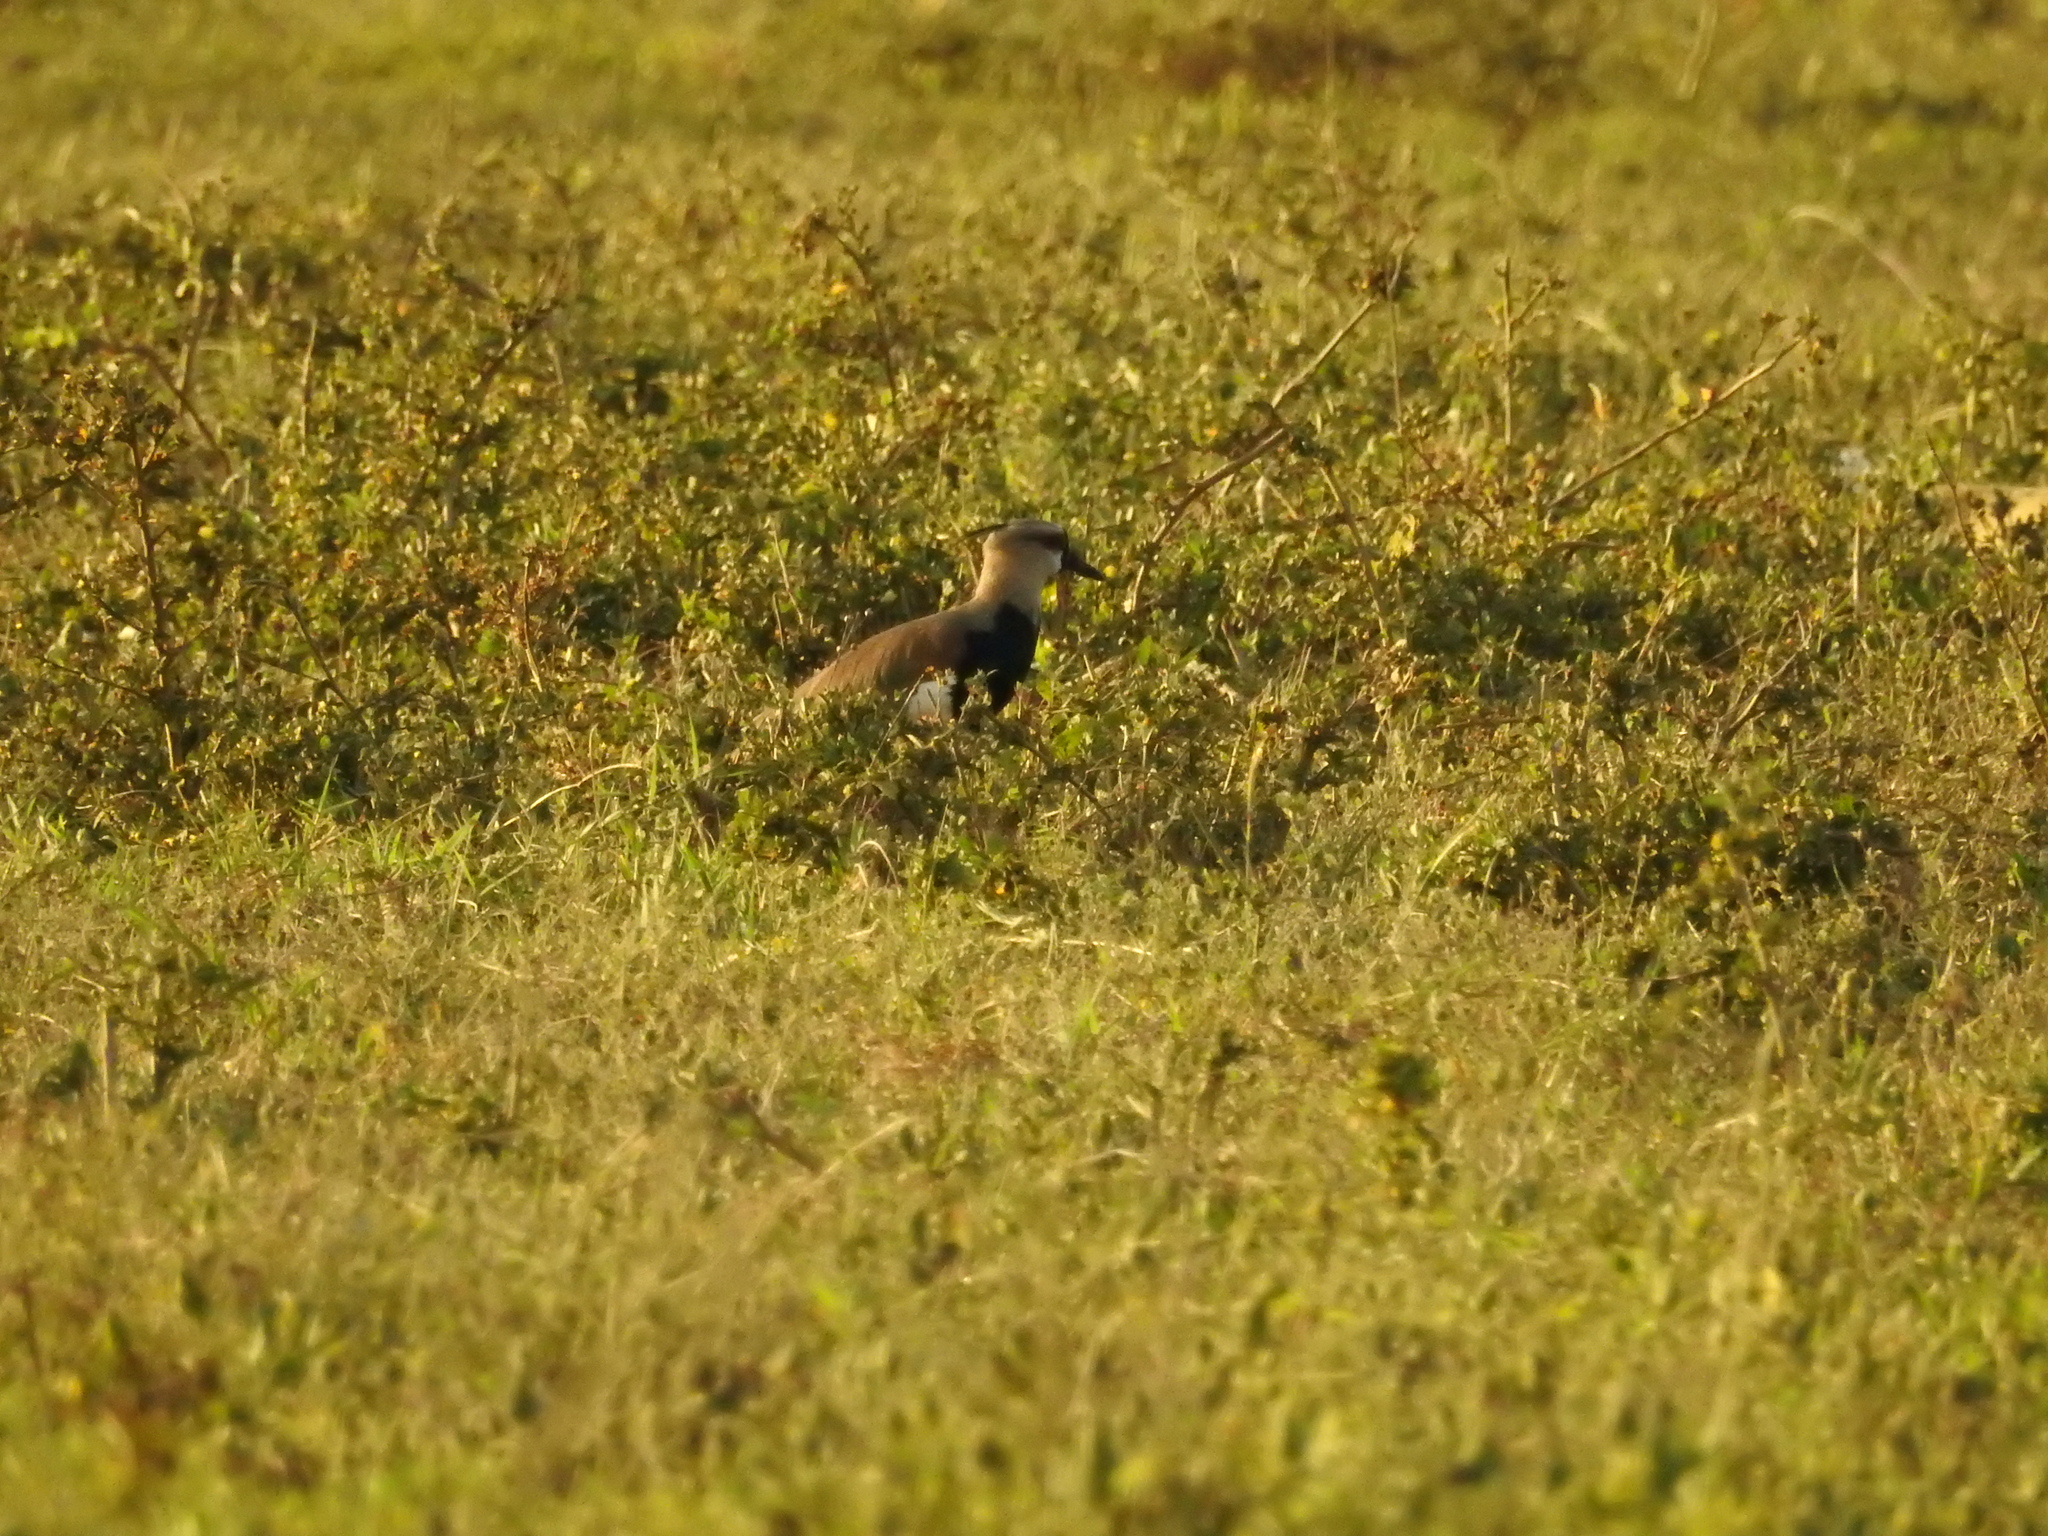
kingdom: Animalia
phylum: Chordata
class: Aves
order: Charadriiformes
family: Charadriidae
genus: Vanellus
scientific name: Vanellus chilensis
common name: Southern lapwing
